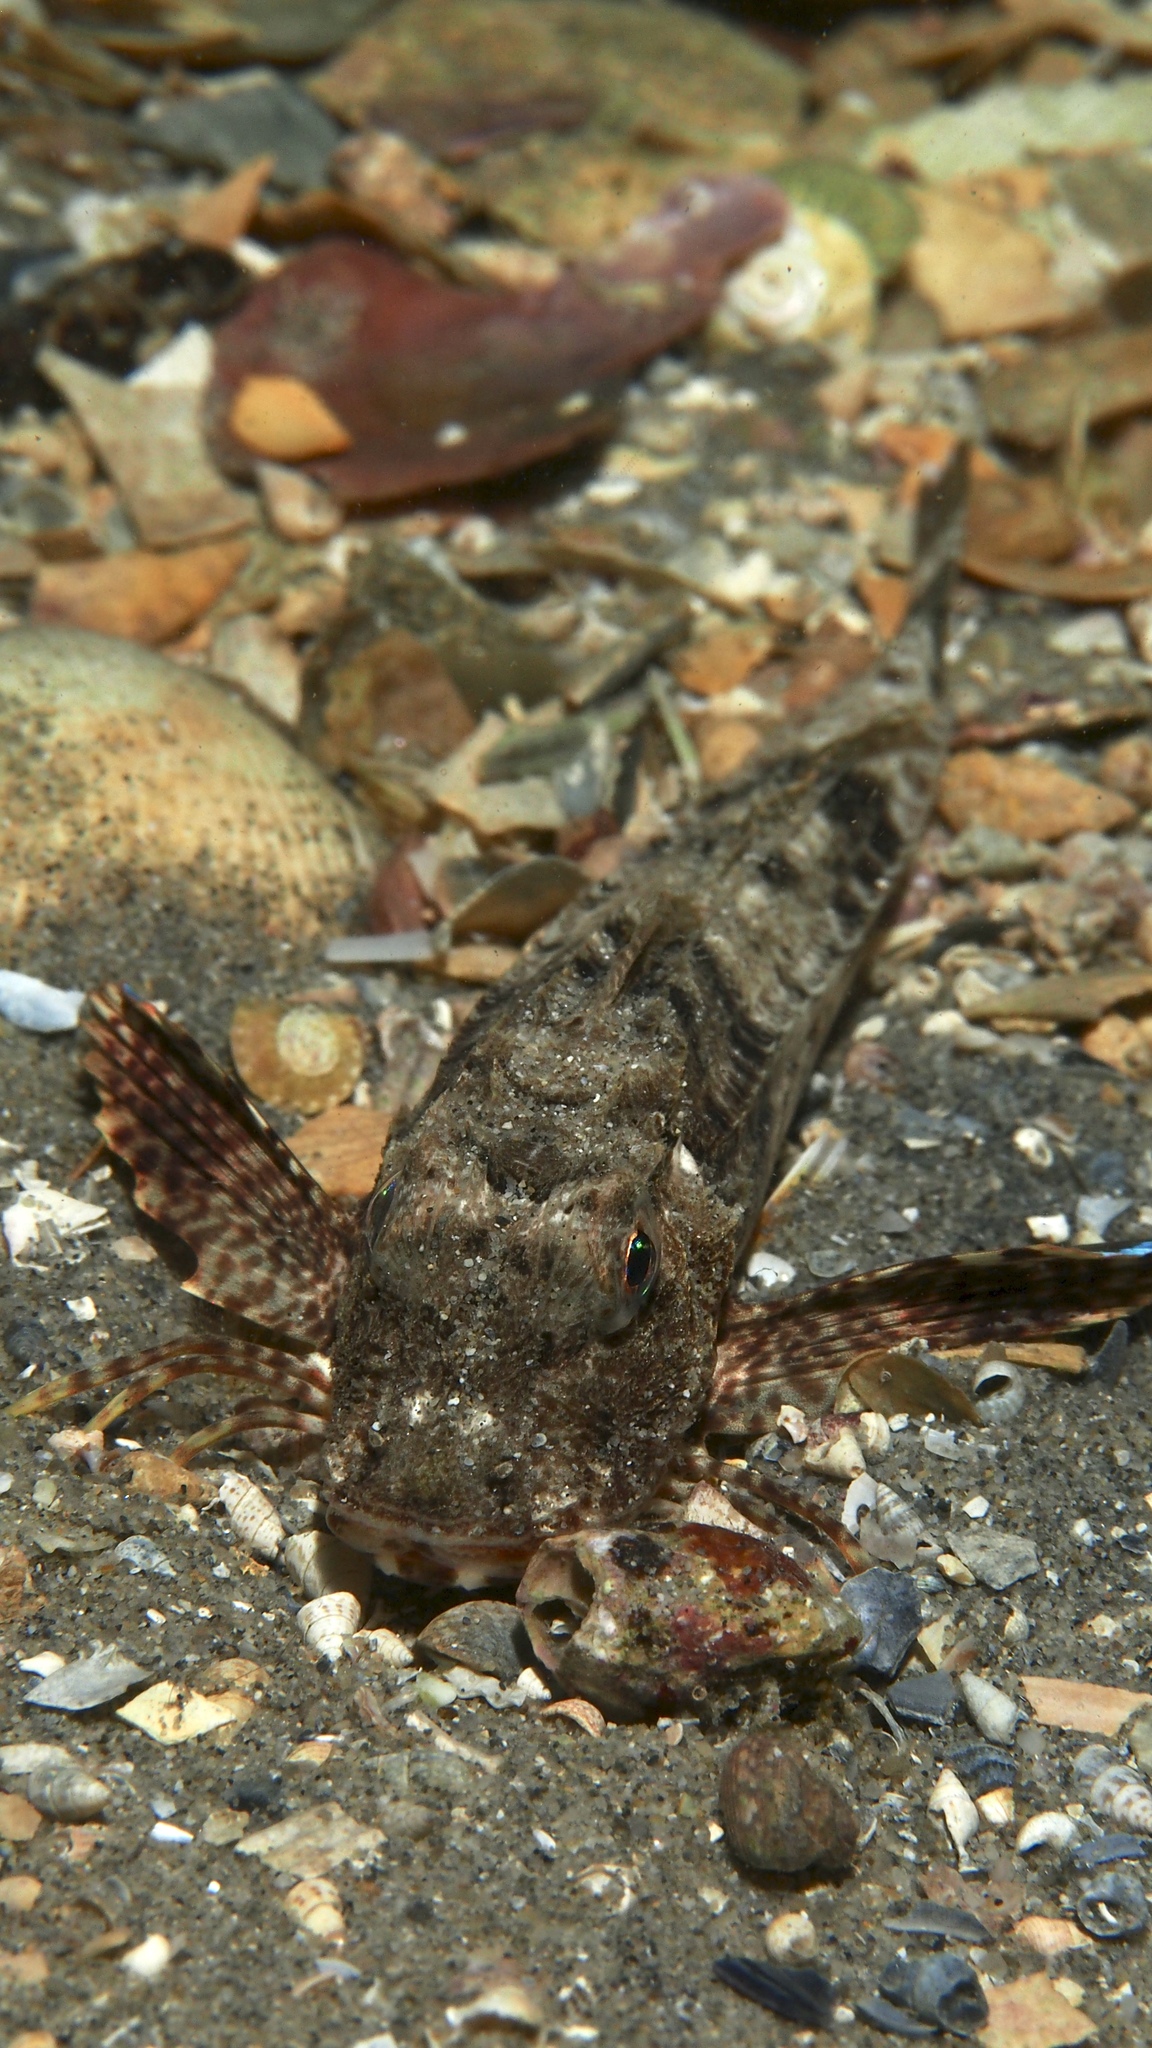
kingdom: Animalia
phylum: Chordata
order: Scorpaeniformes
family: Triglidae
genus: Lepidotrigla
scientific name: Lepidotrigla papilio
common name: Australian spiny gurnard
